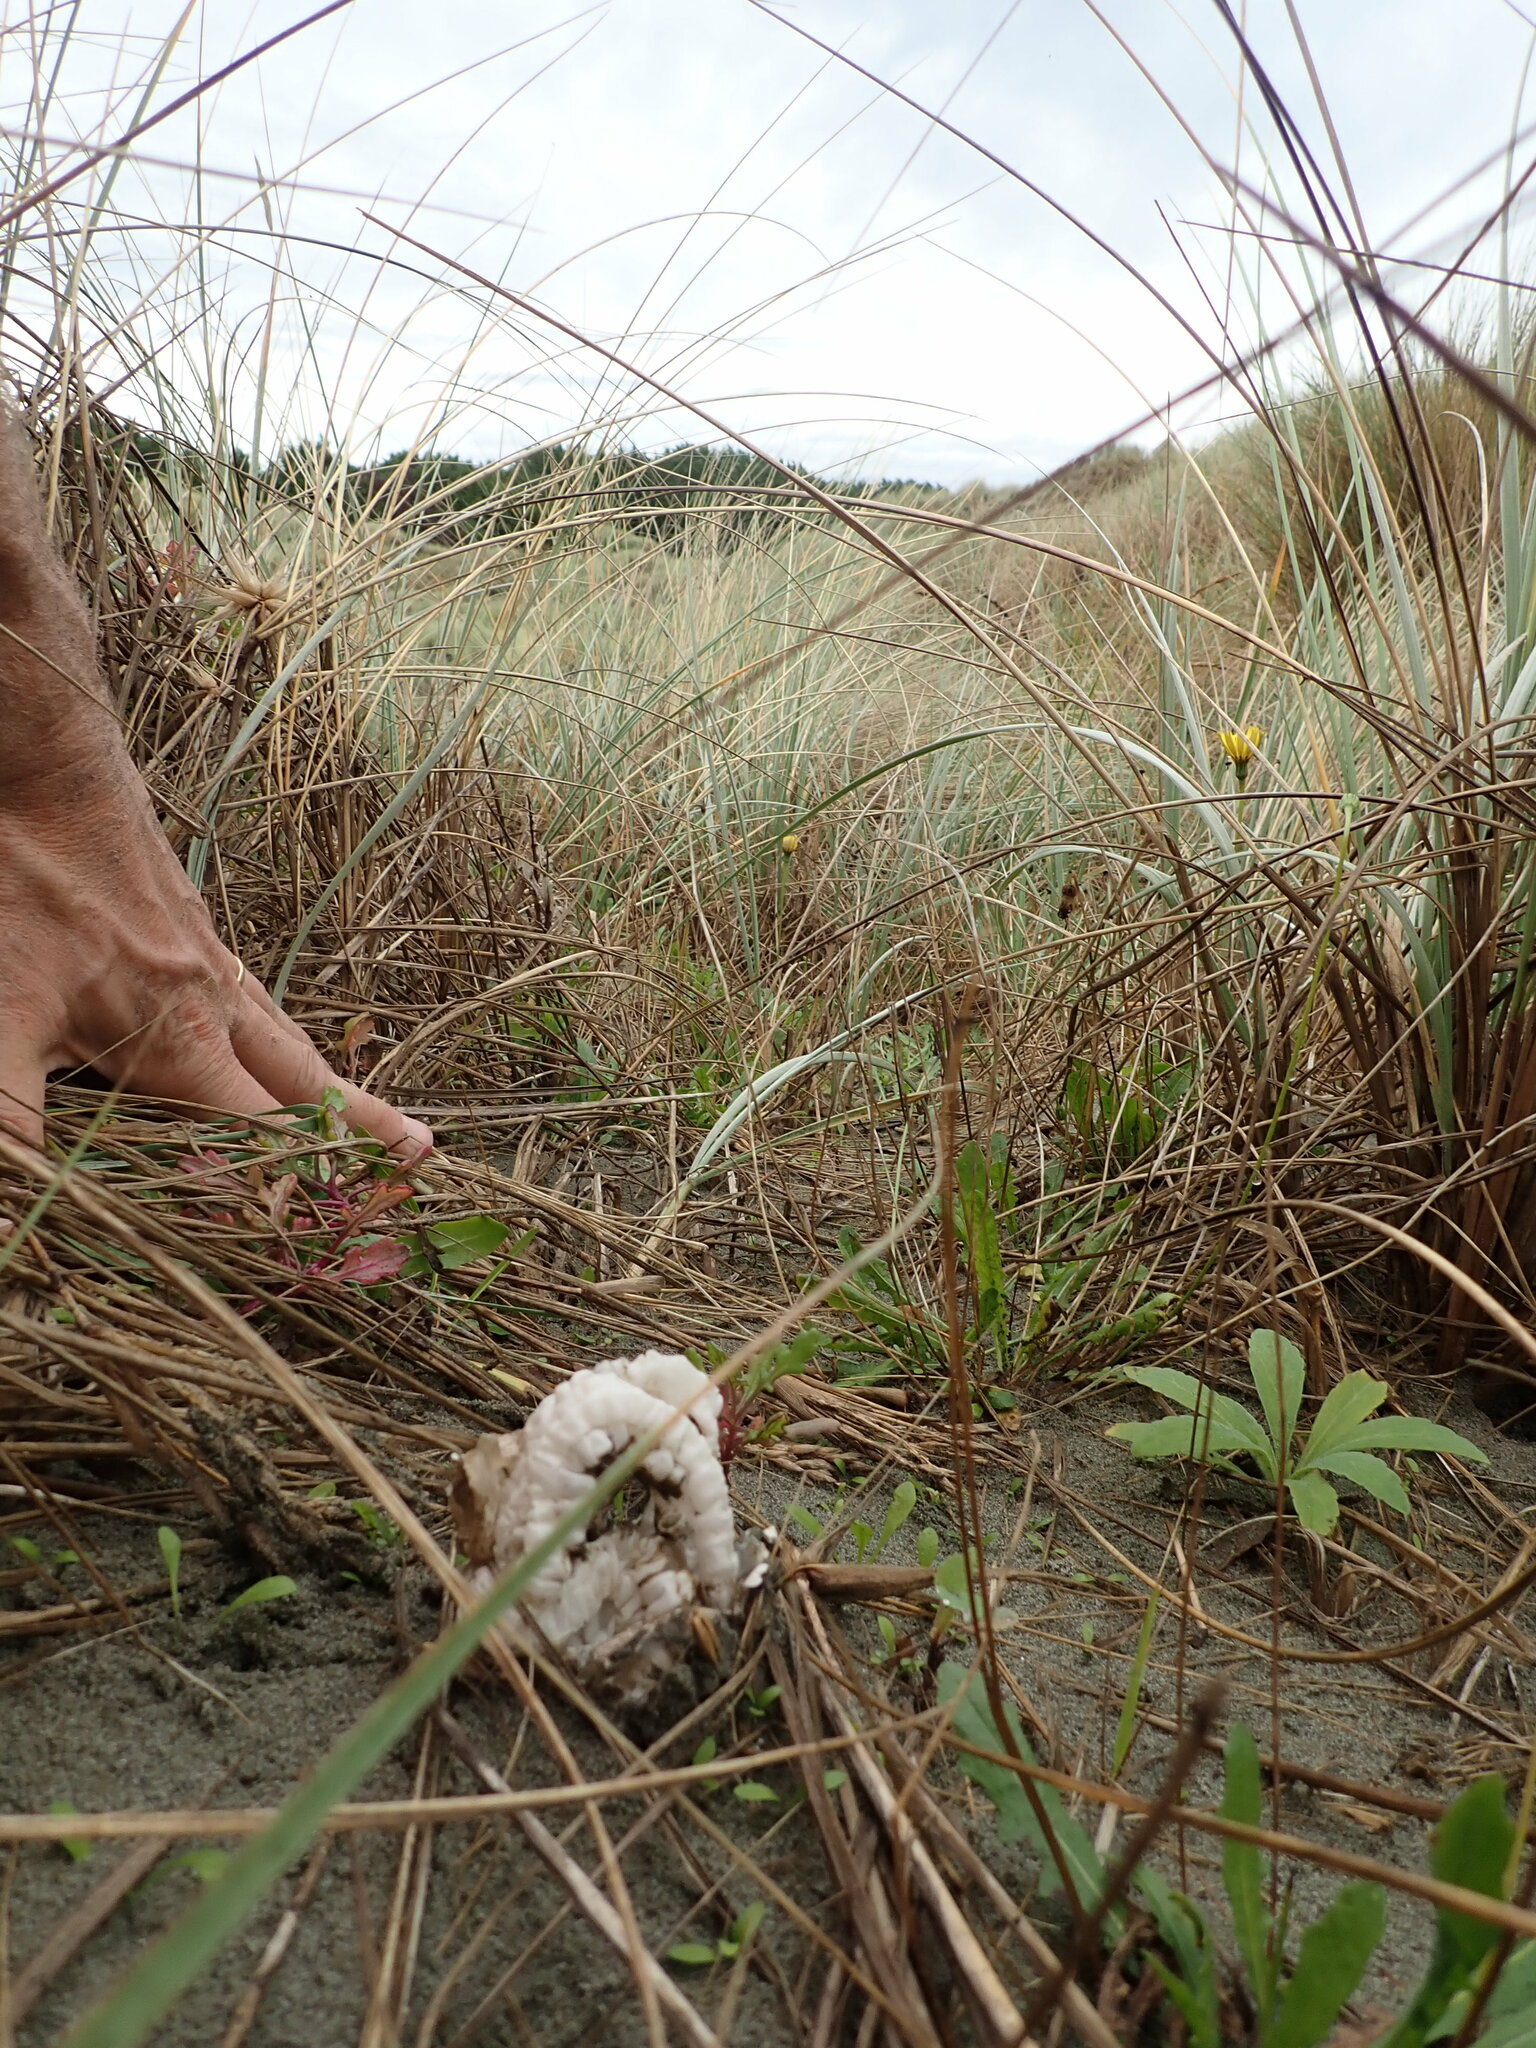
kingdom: Fungi
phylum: Basidiomycota
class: Agaricomycetes
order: Phallales
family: Phallaceae
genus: Ileodictyon
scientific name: Ileodictyon cibarium
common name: Basket fungus
